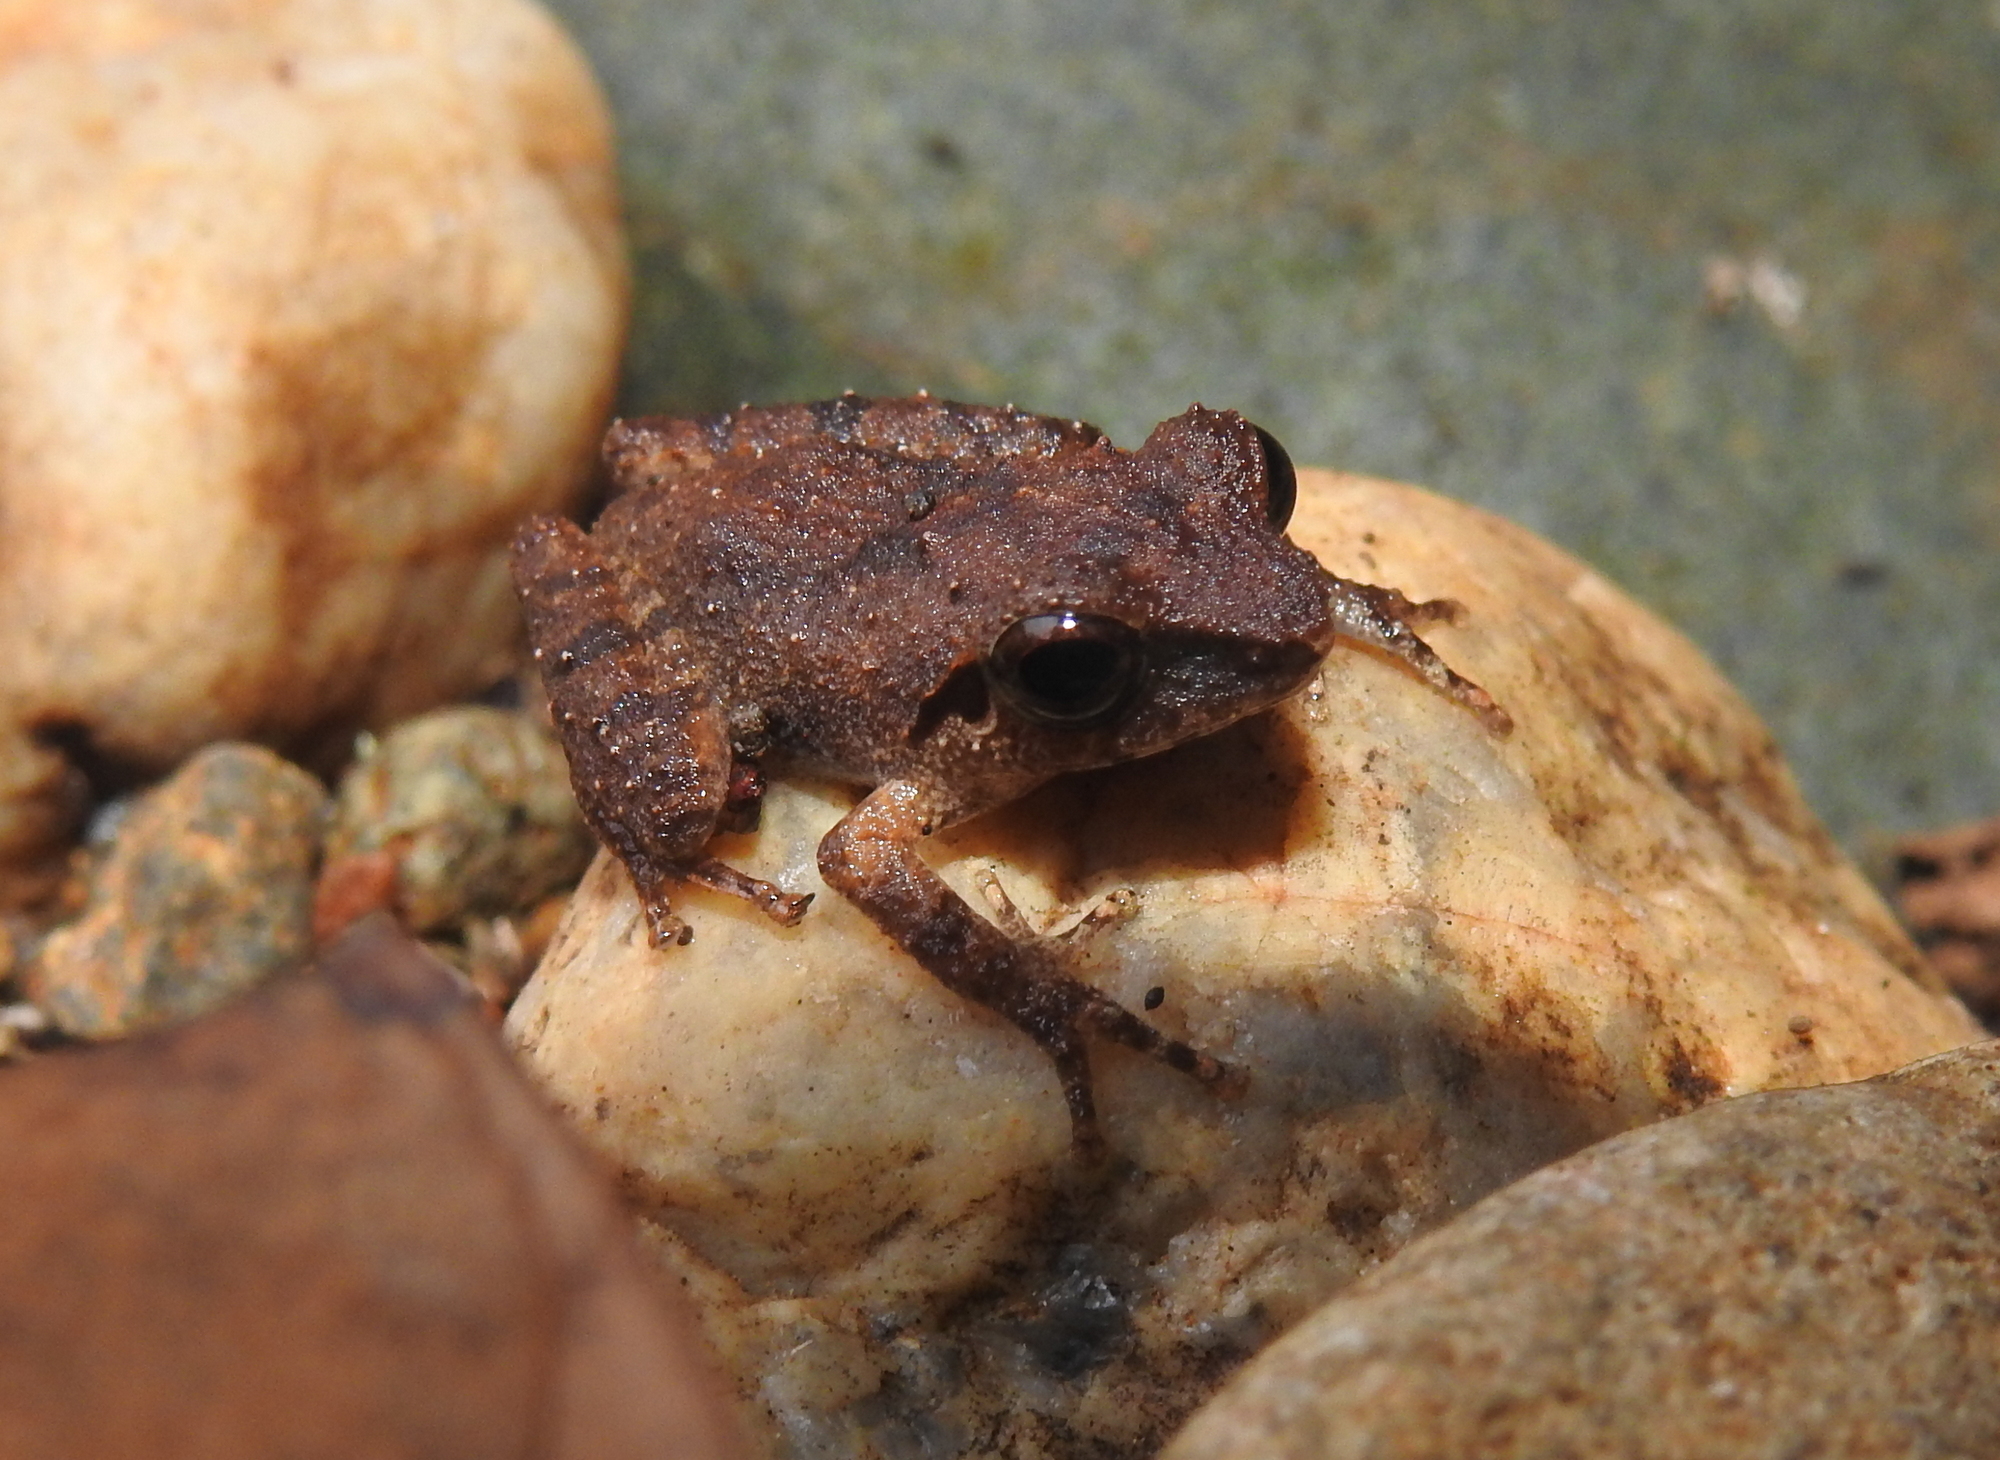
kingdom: Animalia
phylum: Chordata
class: Amphibia
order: Anura
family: Rhacophoridae
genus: Pseudophilautus
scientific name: Pseudophilautus wynaadensis
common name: Dark-eared bush frog
